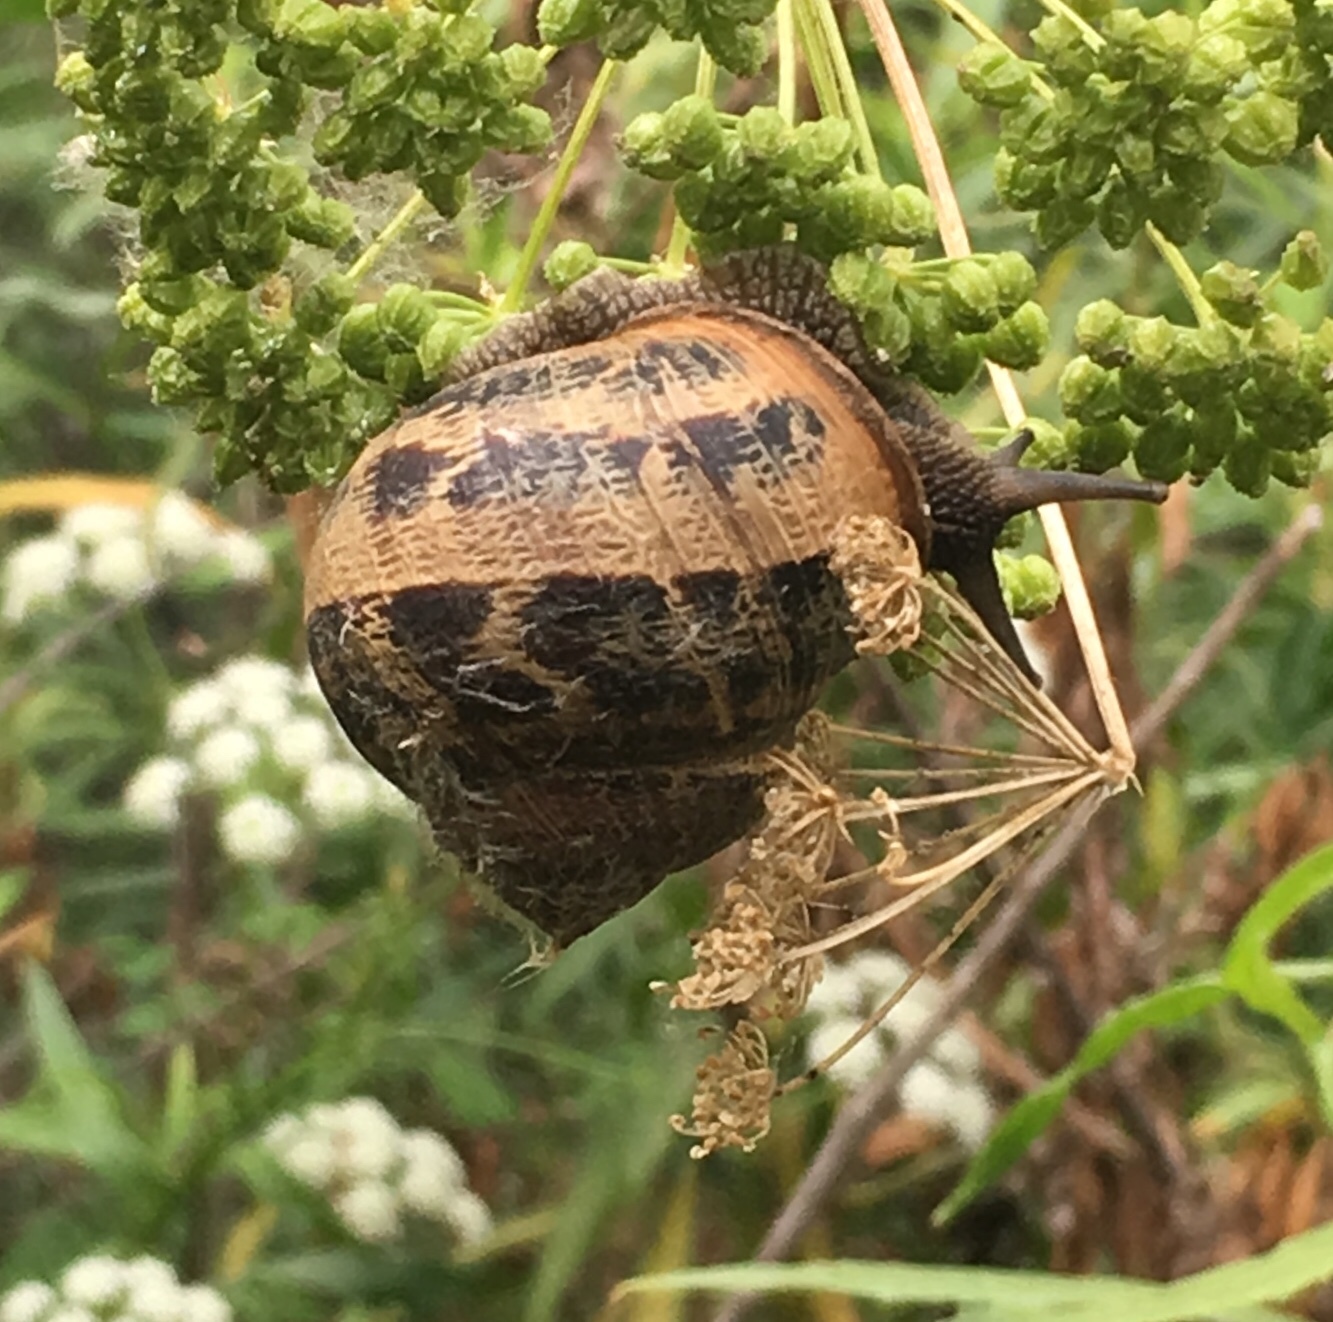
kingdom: Animalia
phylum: Mollusca
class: Gastropoda
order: Stylommatophora
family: Helicidae
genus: Cornu
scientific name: Cornu aspersum
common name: Brown garden snail
